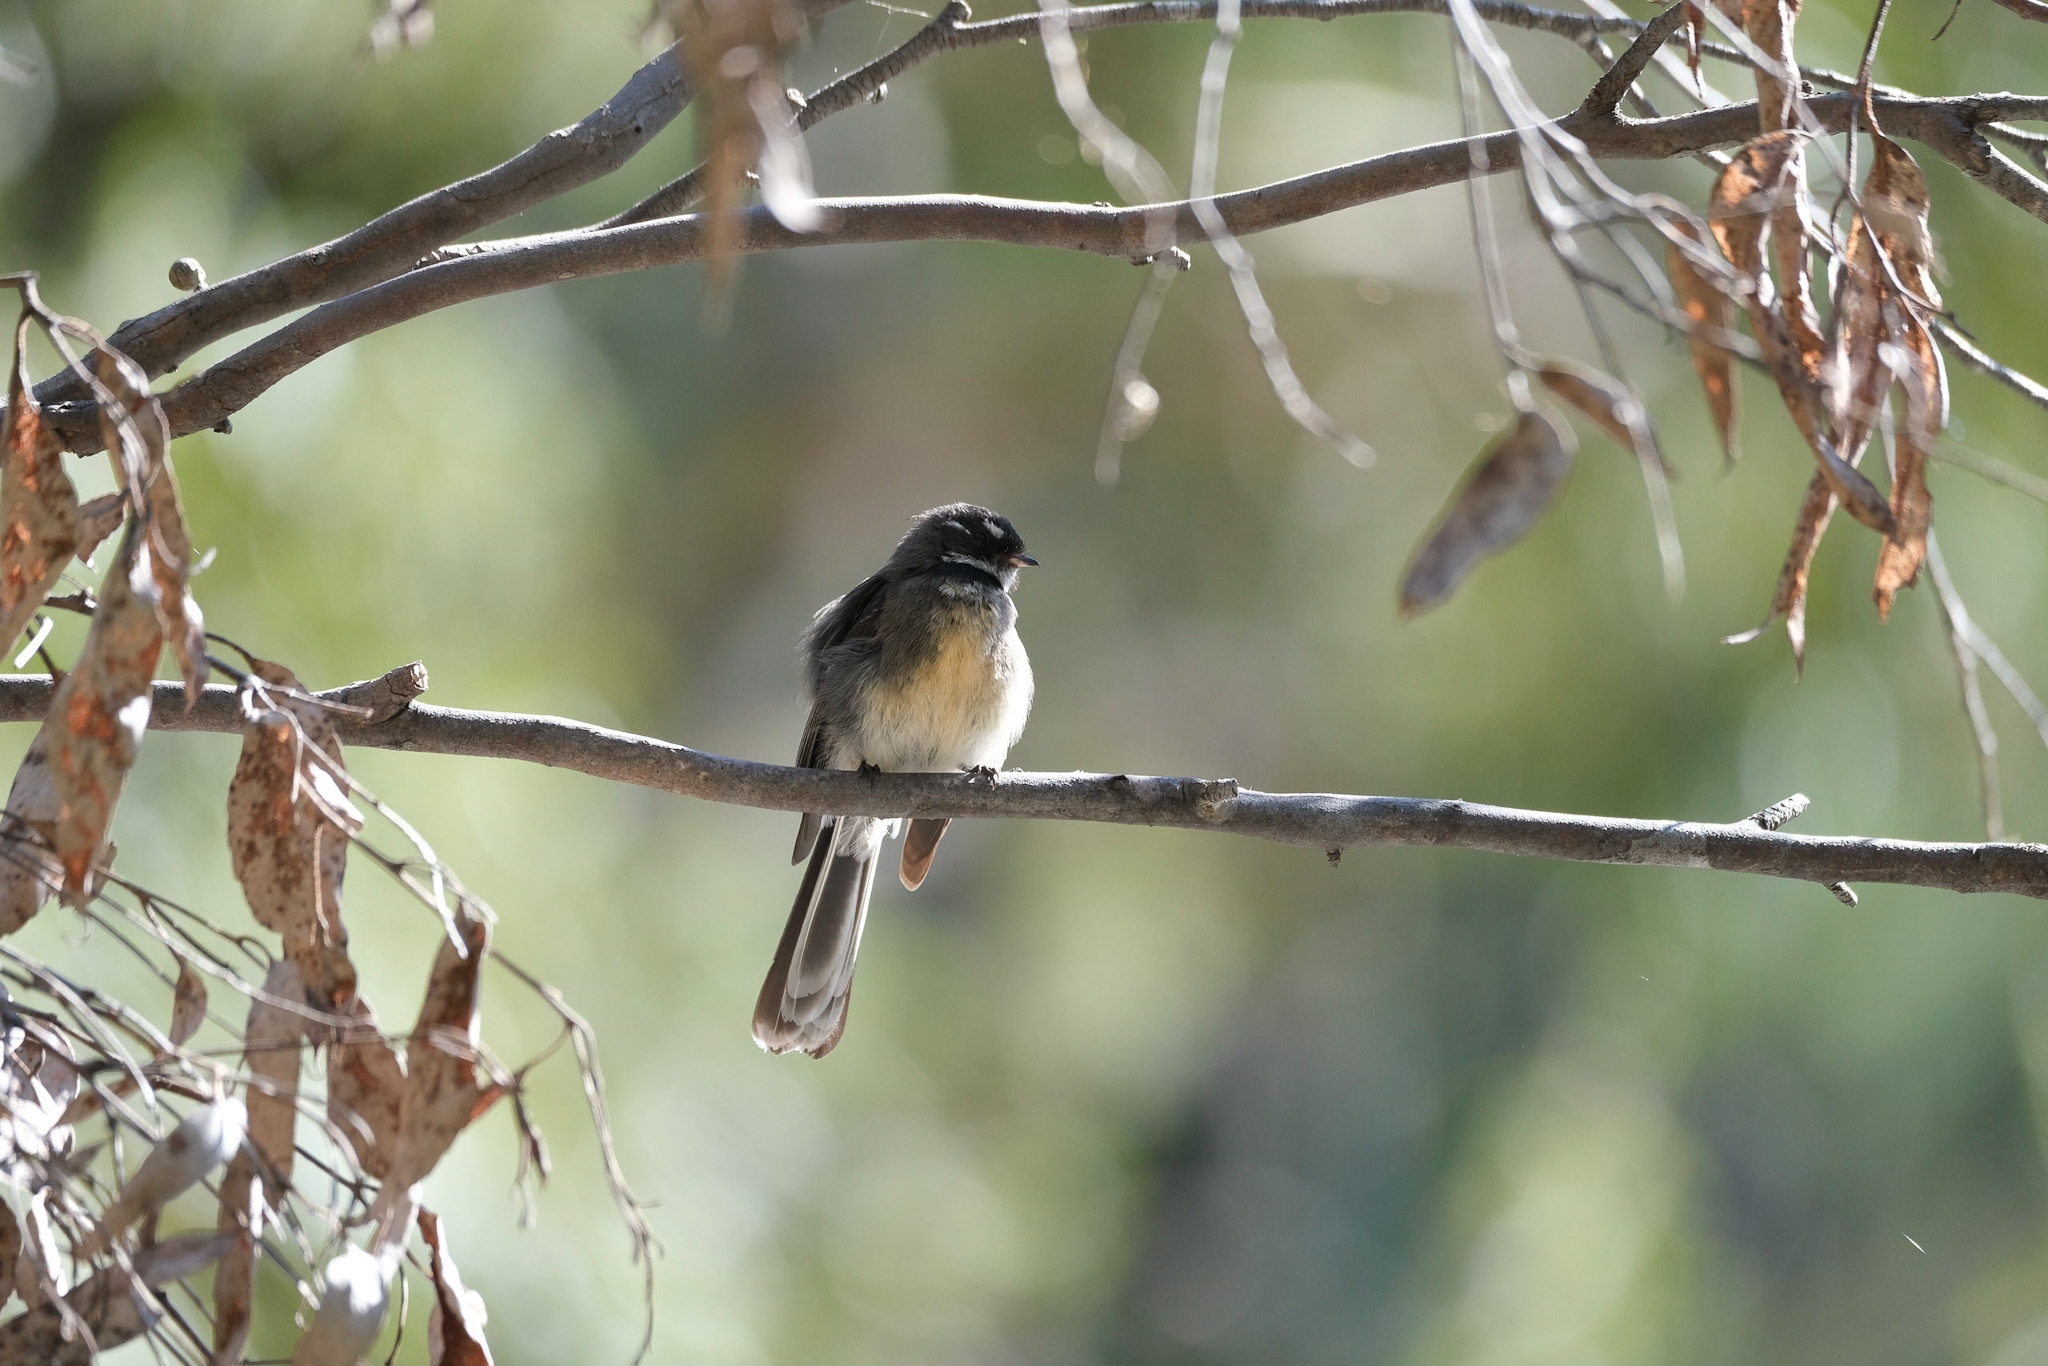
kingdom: Animalia
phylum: Chordata
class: Aves
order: Passeriformes
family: Rhipiduridae
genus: Rhipidura
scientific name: Rhipidura albiscapa
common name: Grey fantail
